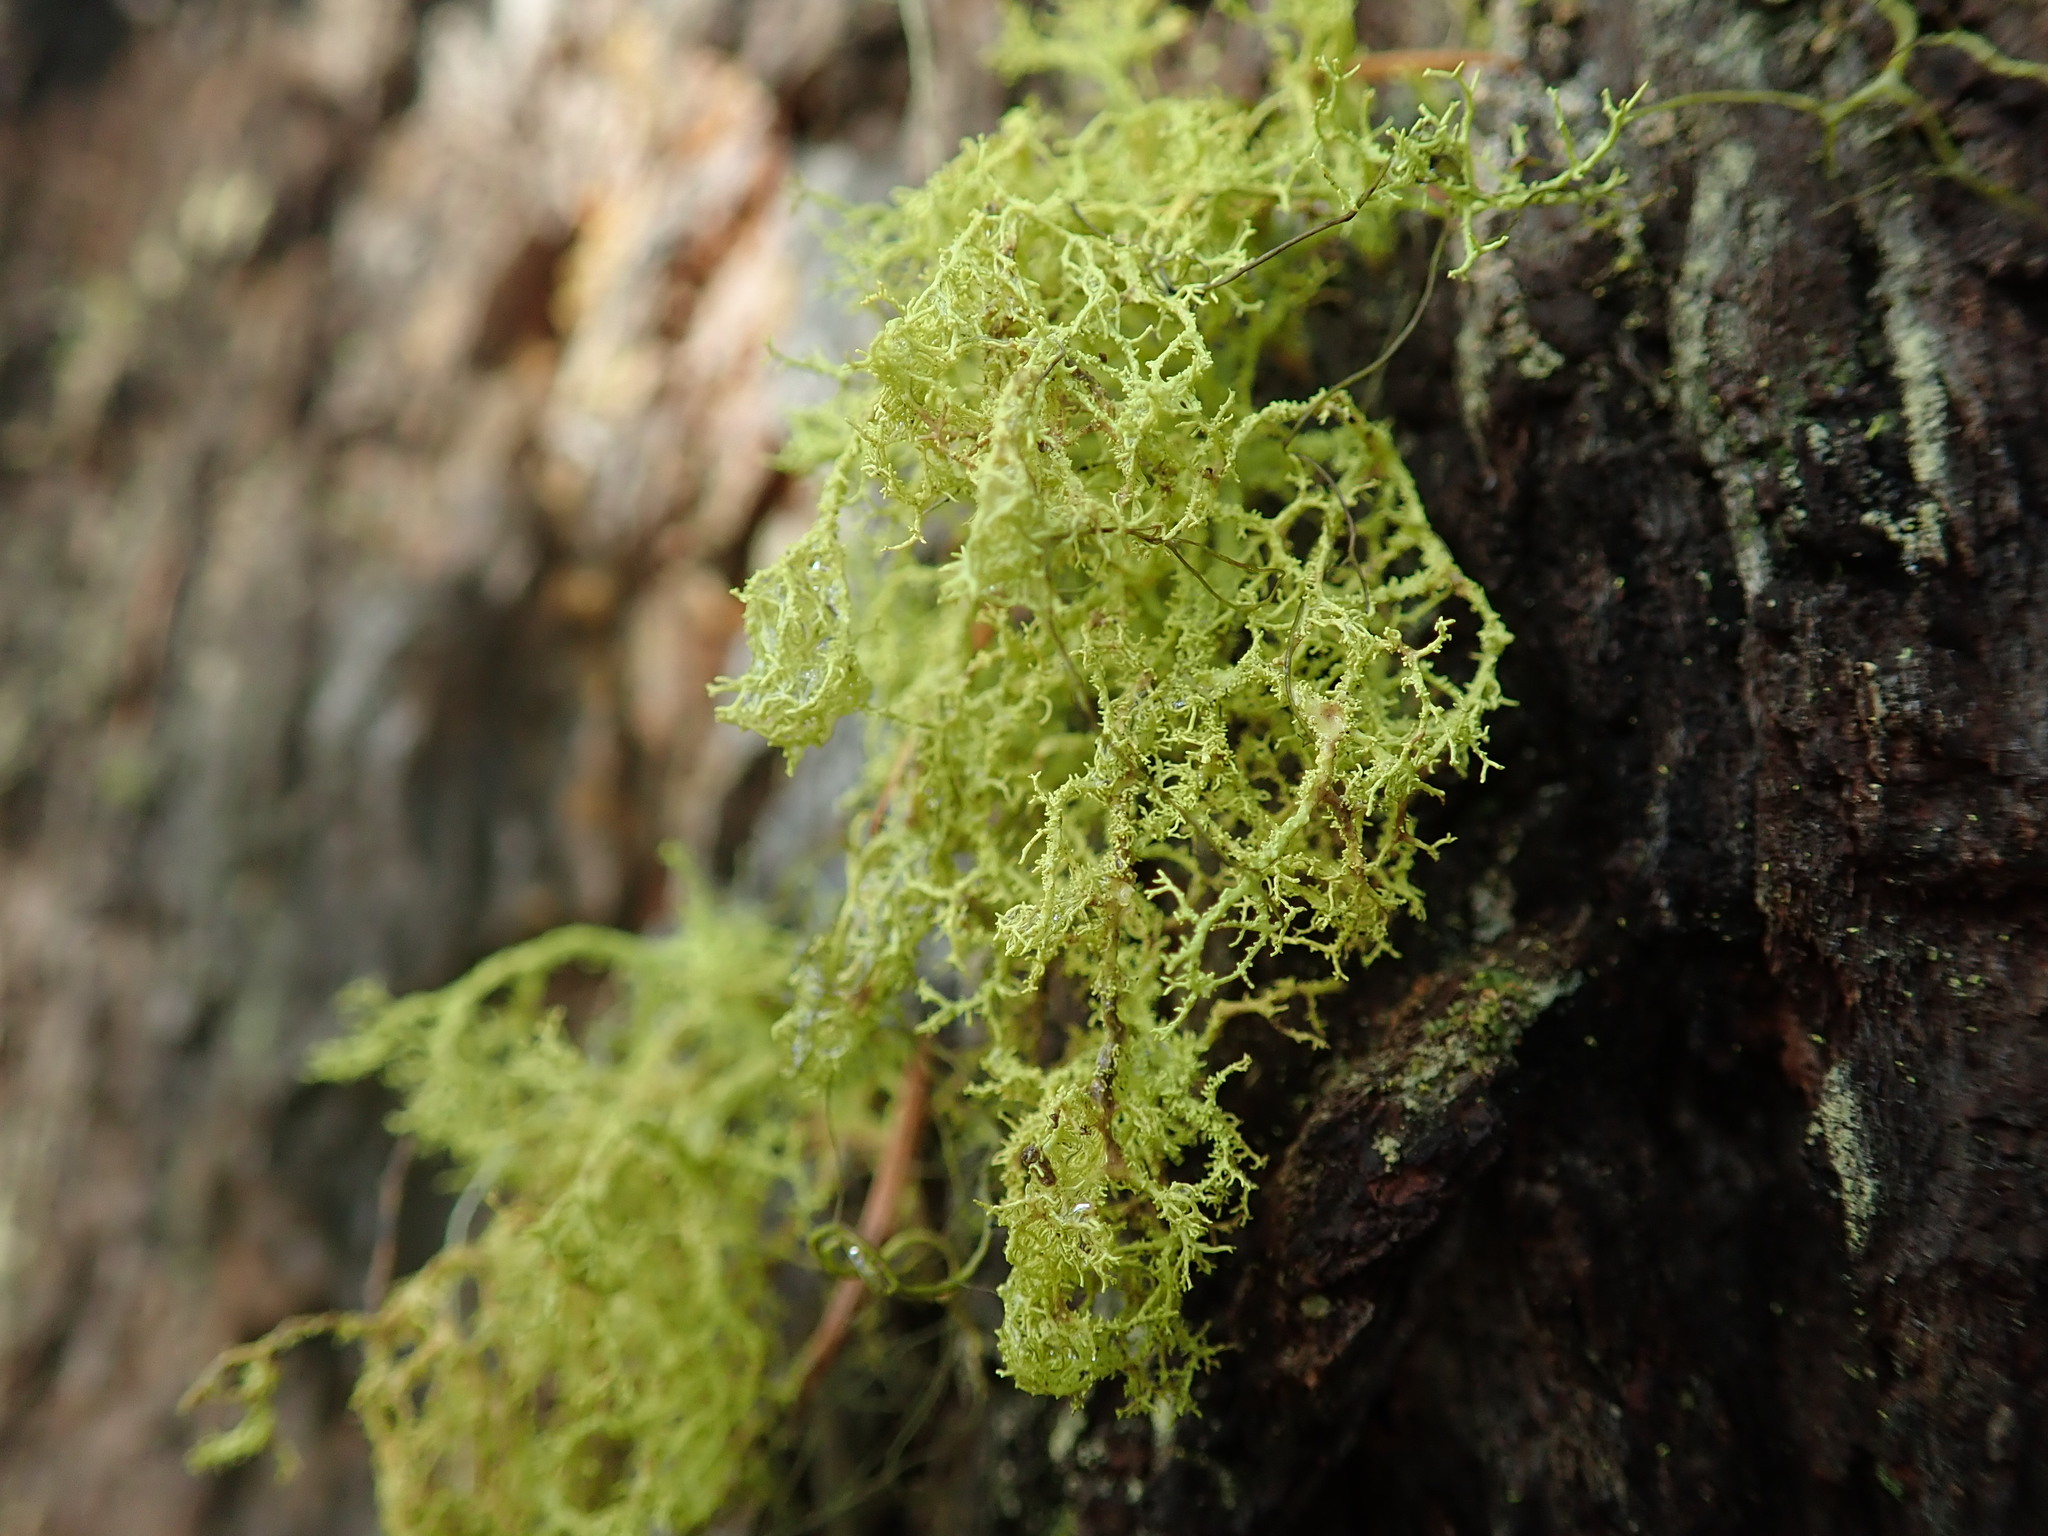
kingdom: Fungi
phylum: Ascomycota
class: Lecanoromycetes
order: Lecanorales
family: Parmeliaceae
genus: Letharia
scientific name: Letharia vulpina
